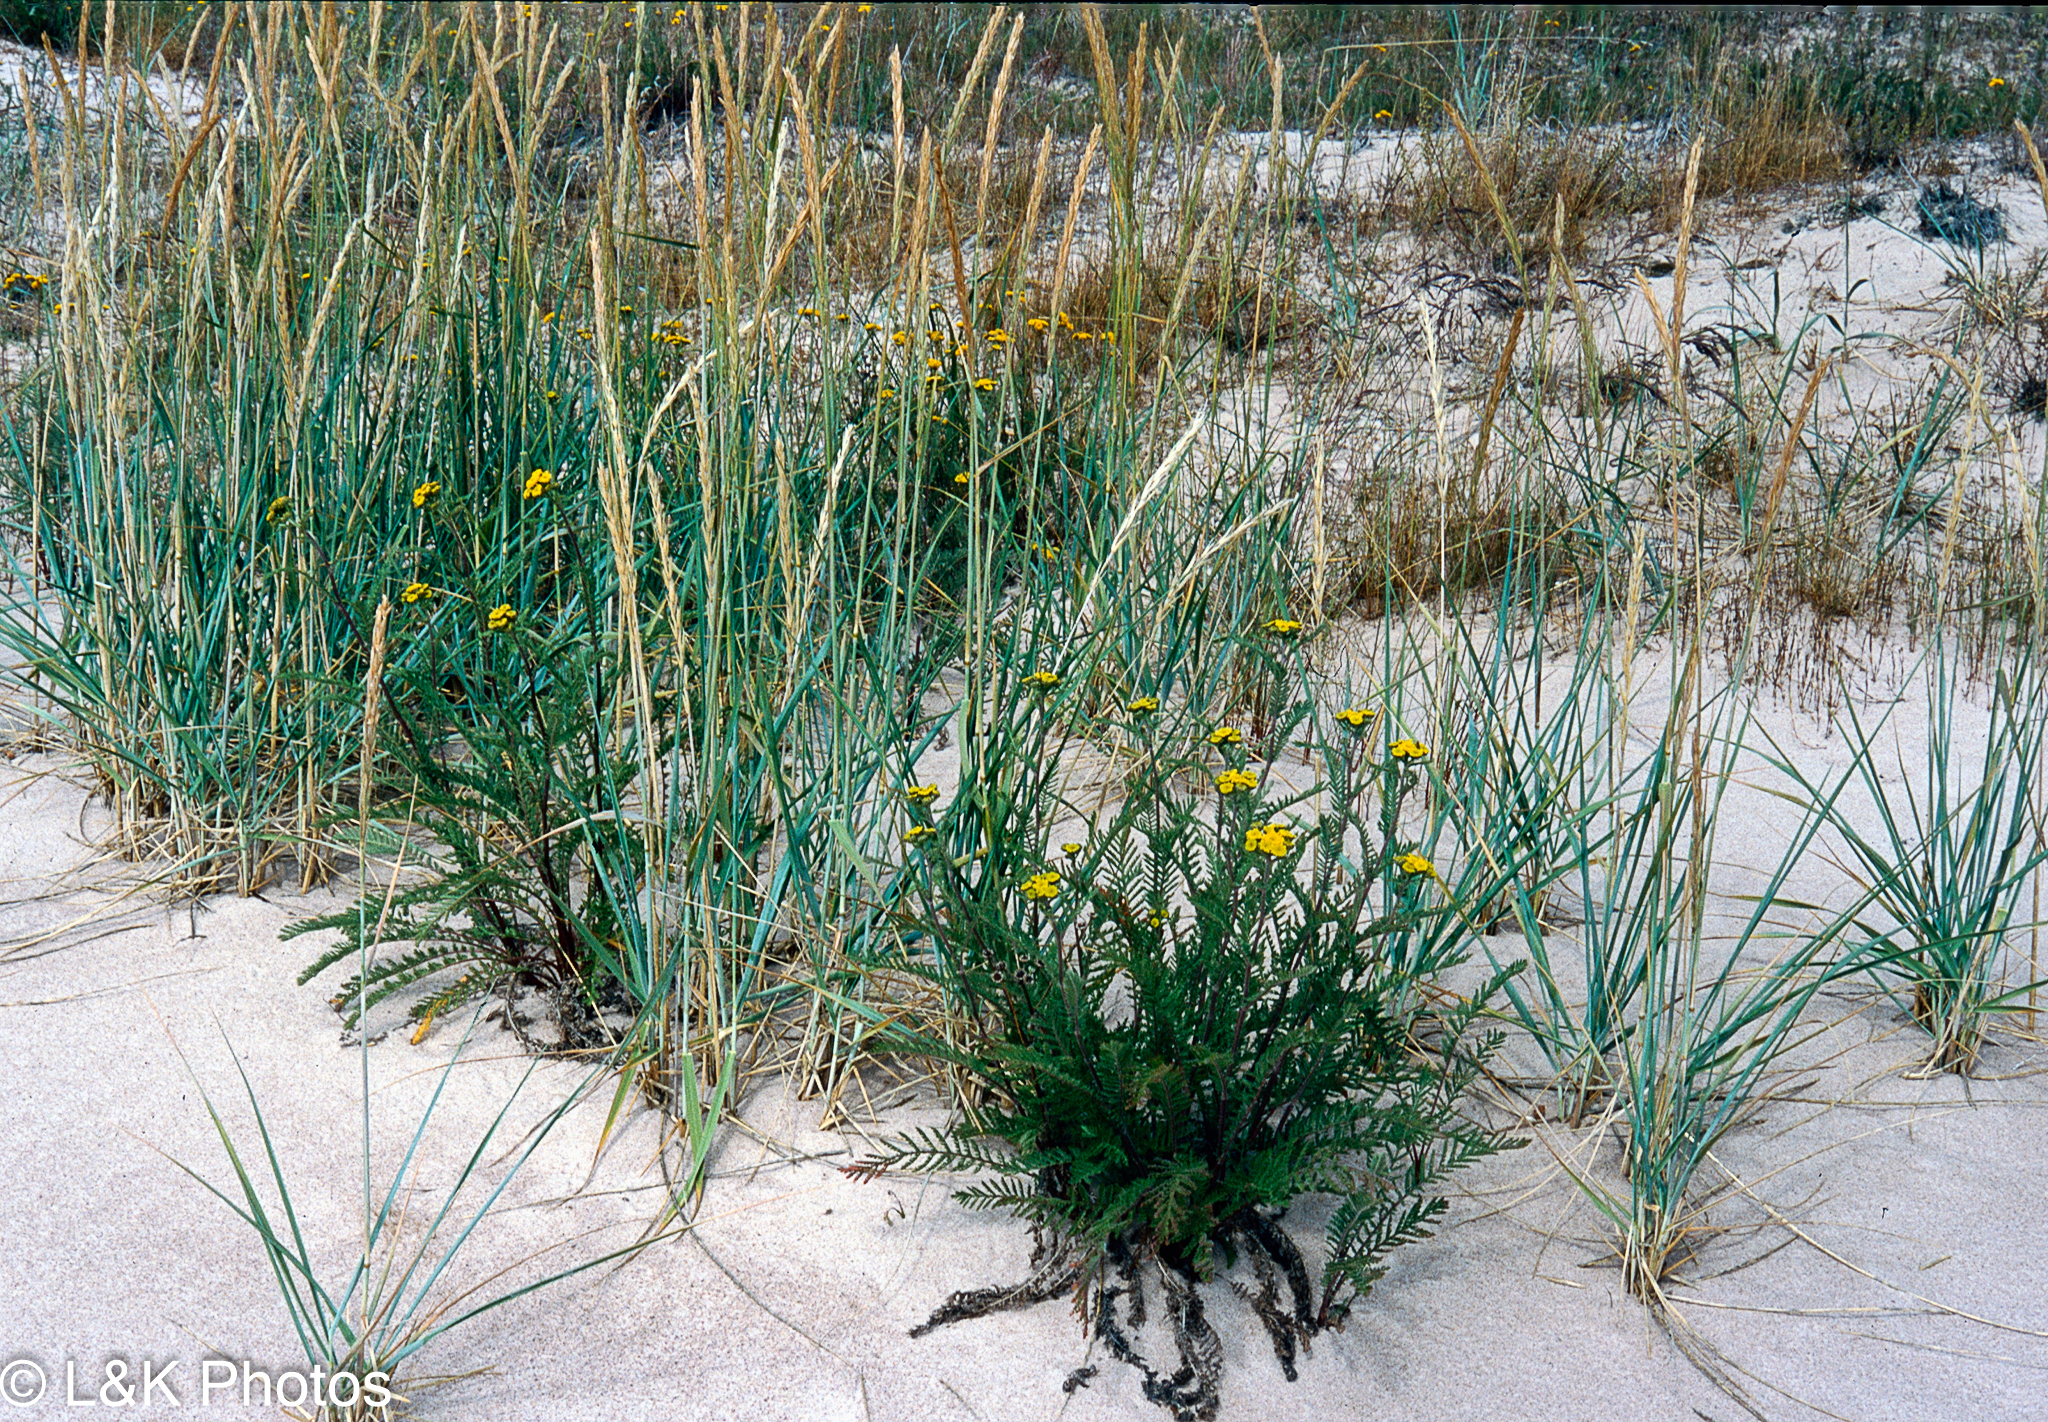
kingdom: Plantae
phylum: Tracheophyta
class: Magnoliopsida
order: Asterales
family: Asteraceae
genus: Tanacetum
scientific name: Tanacetum bipinnatum
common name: Dwarf tansy
